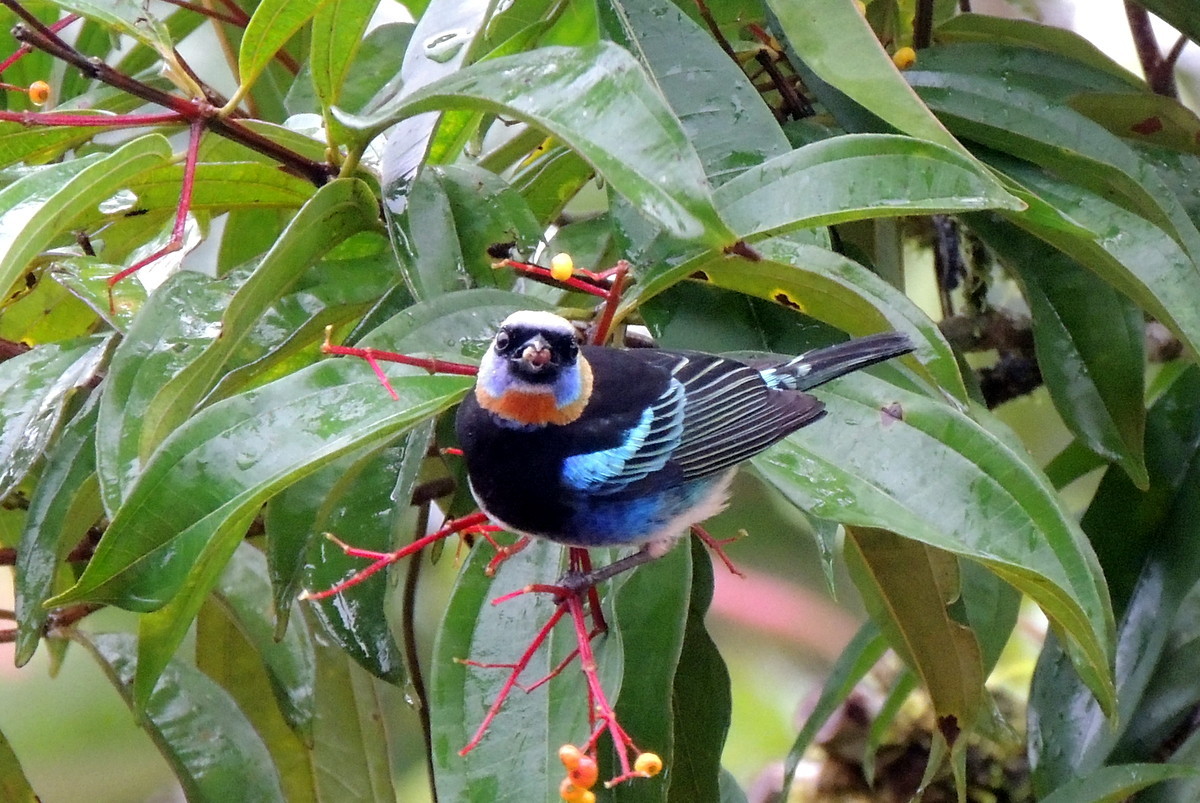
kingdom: Animalia
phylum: Chordata
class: Aves
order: Passeriformes
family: Thraupidae
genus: Stilpnia
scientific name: Stilpnia larvata
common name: Golden-hooded tanager
